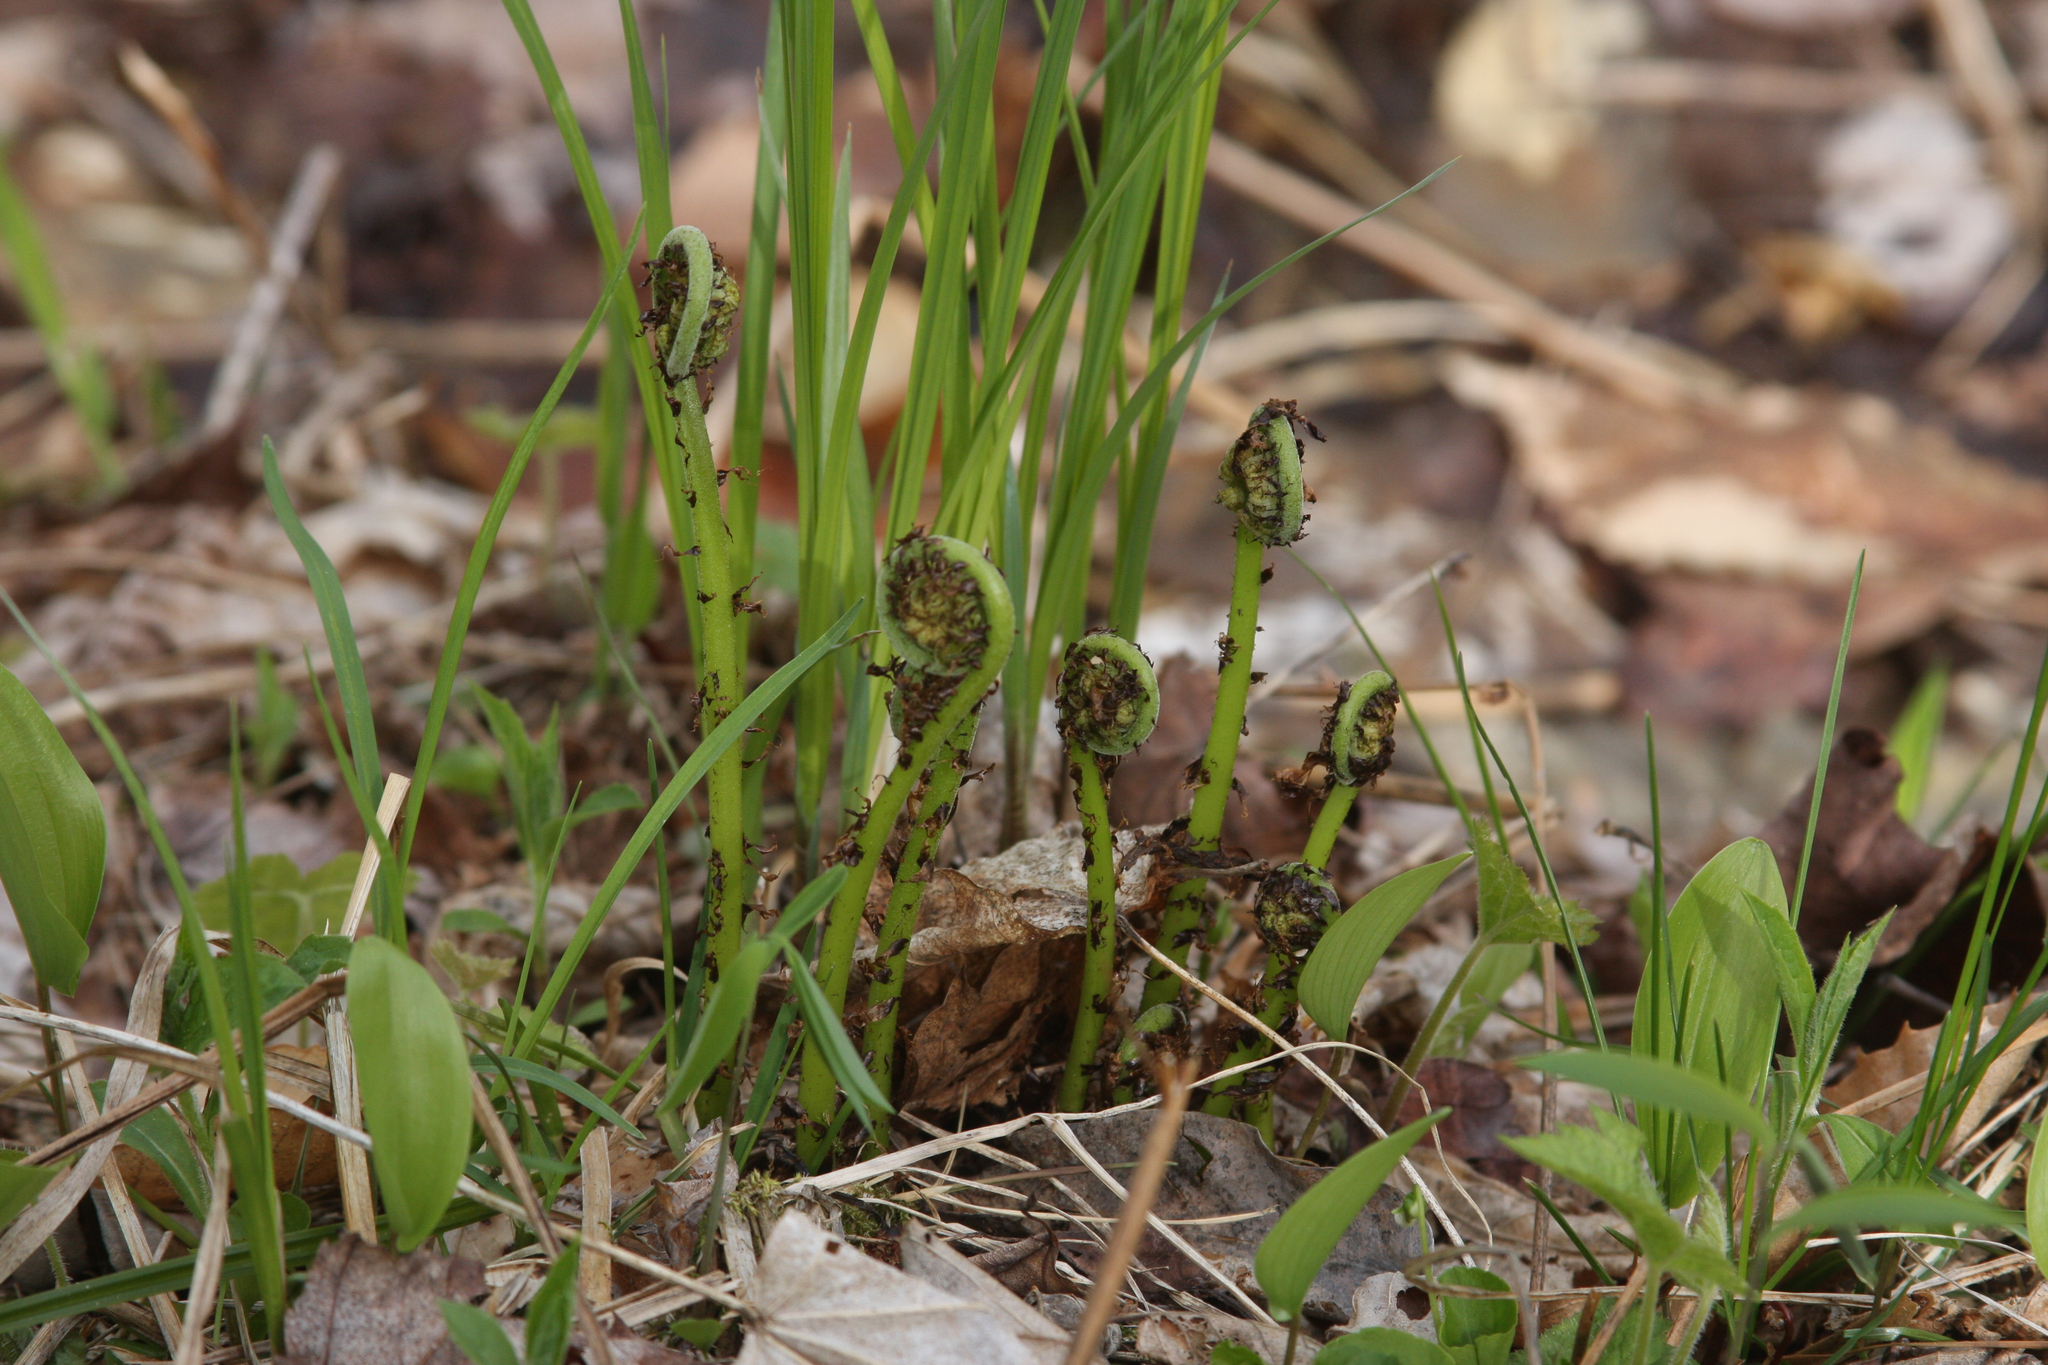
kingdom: Plantae
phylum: Tracheophyta
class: Polypodiopsida
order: Polypodiales
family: Athyriaceae
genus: Athyrium
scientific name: Athyrium angustum
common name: Northern lady fern
